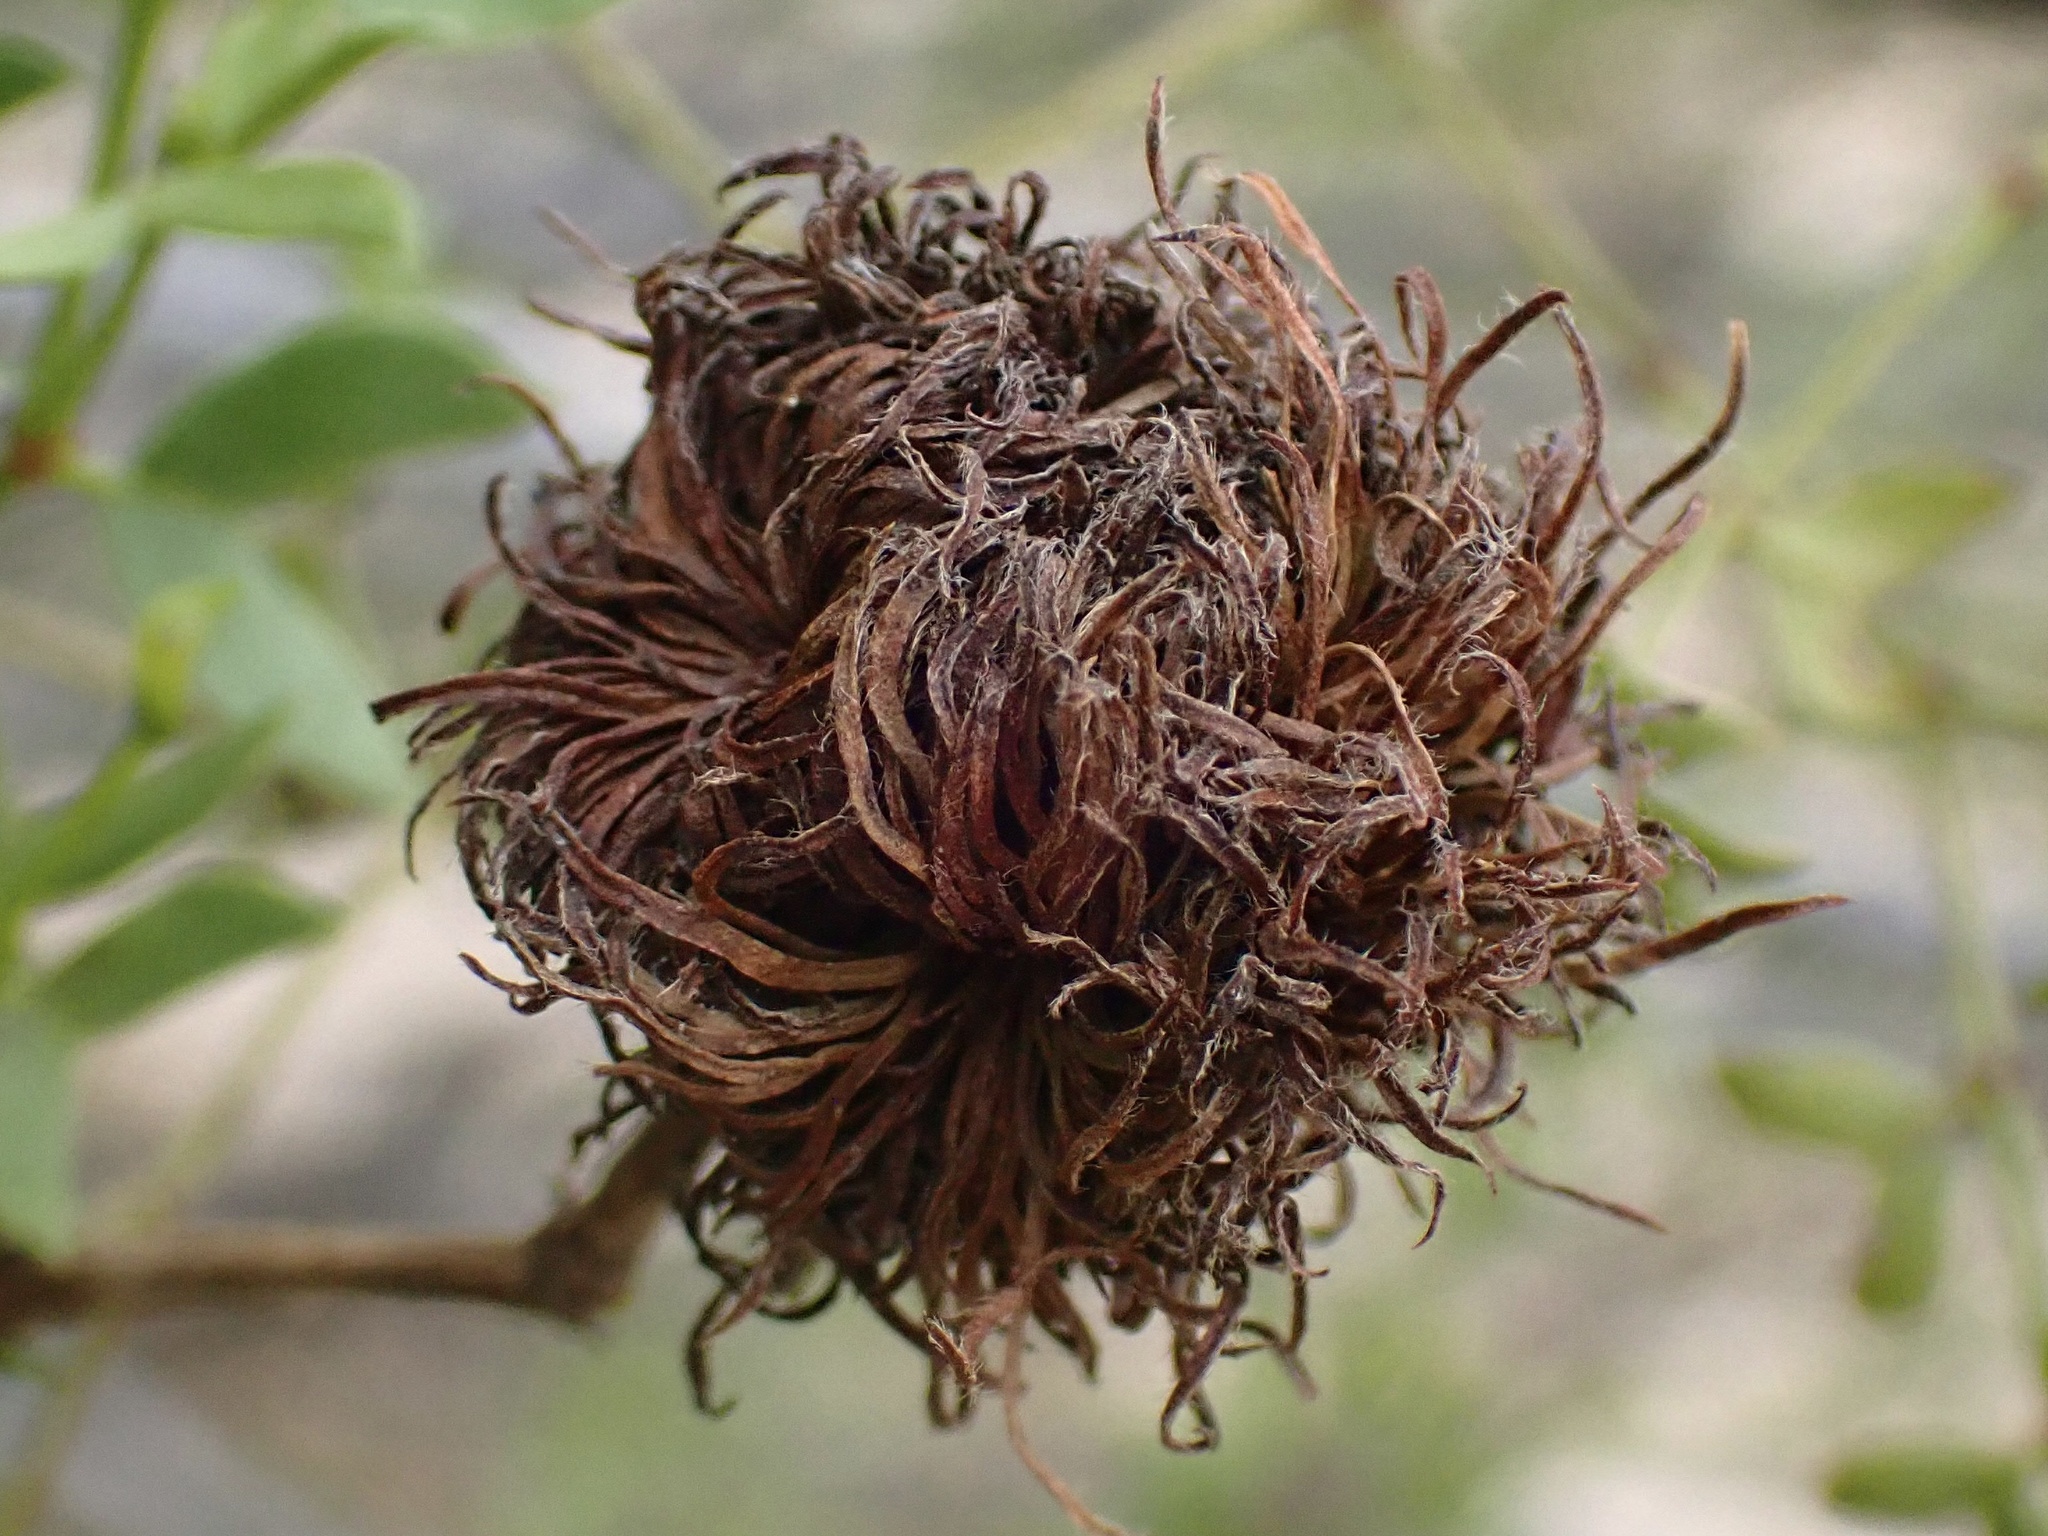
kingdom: Animalia
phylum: Arthropoda
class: Insecta
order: Diptera
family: Cecidomyiidae
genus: Asphondylia
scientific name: Asphondylia auripila
